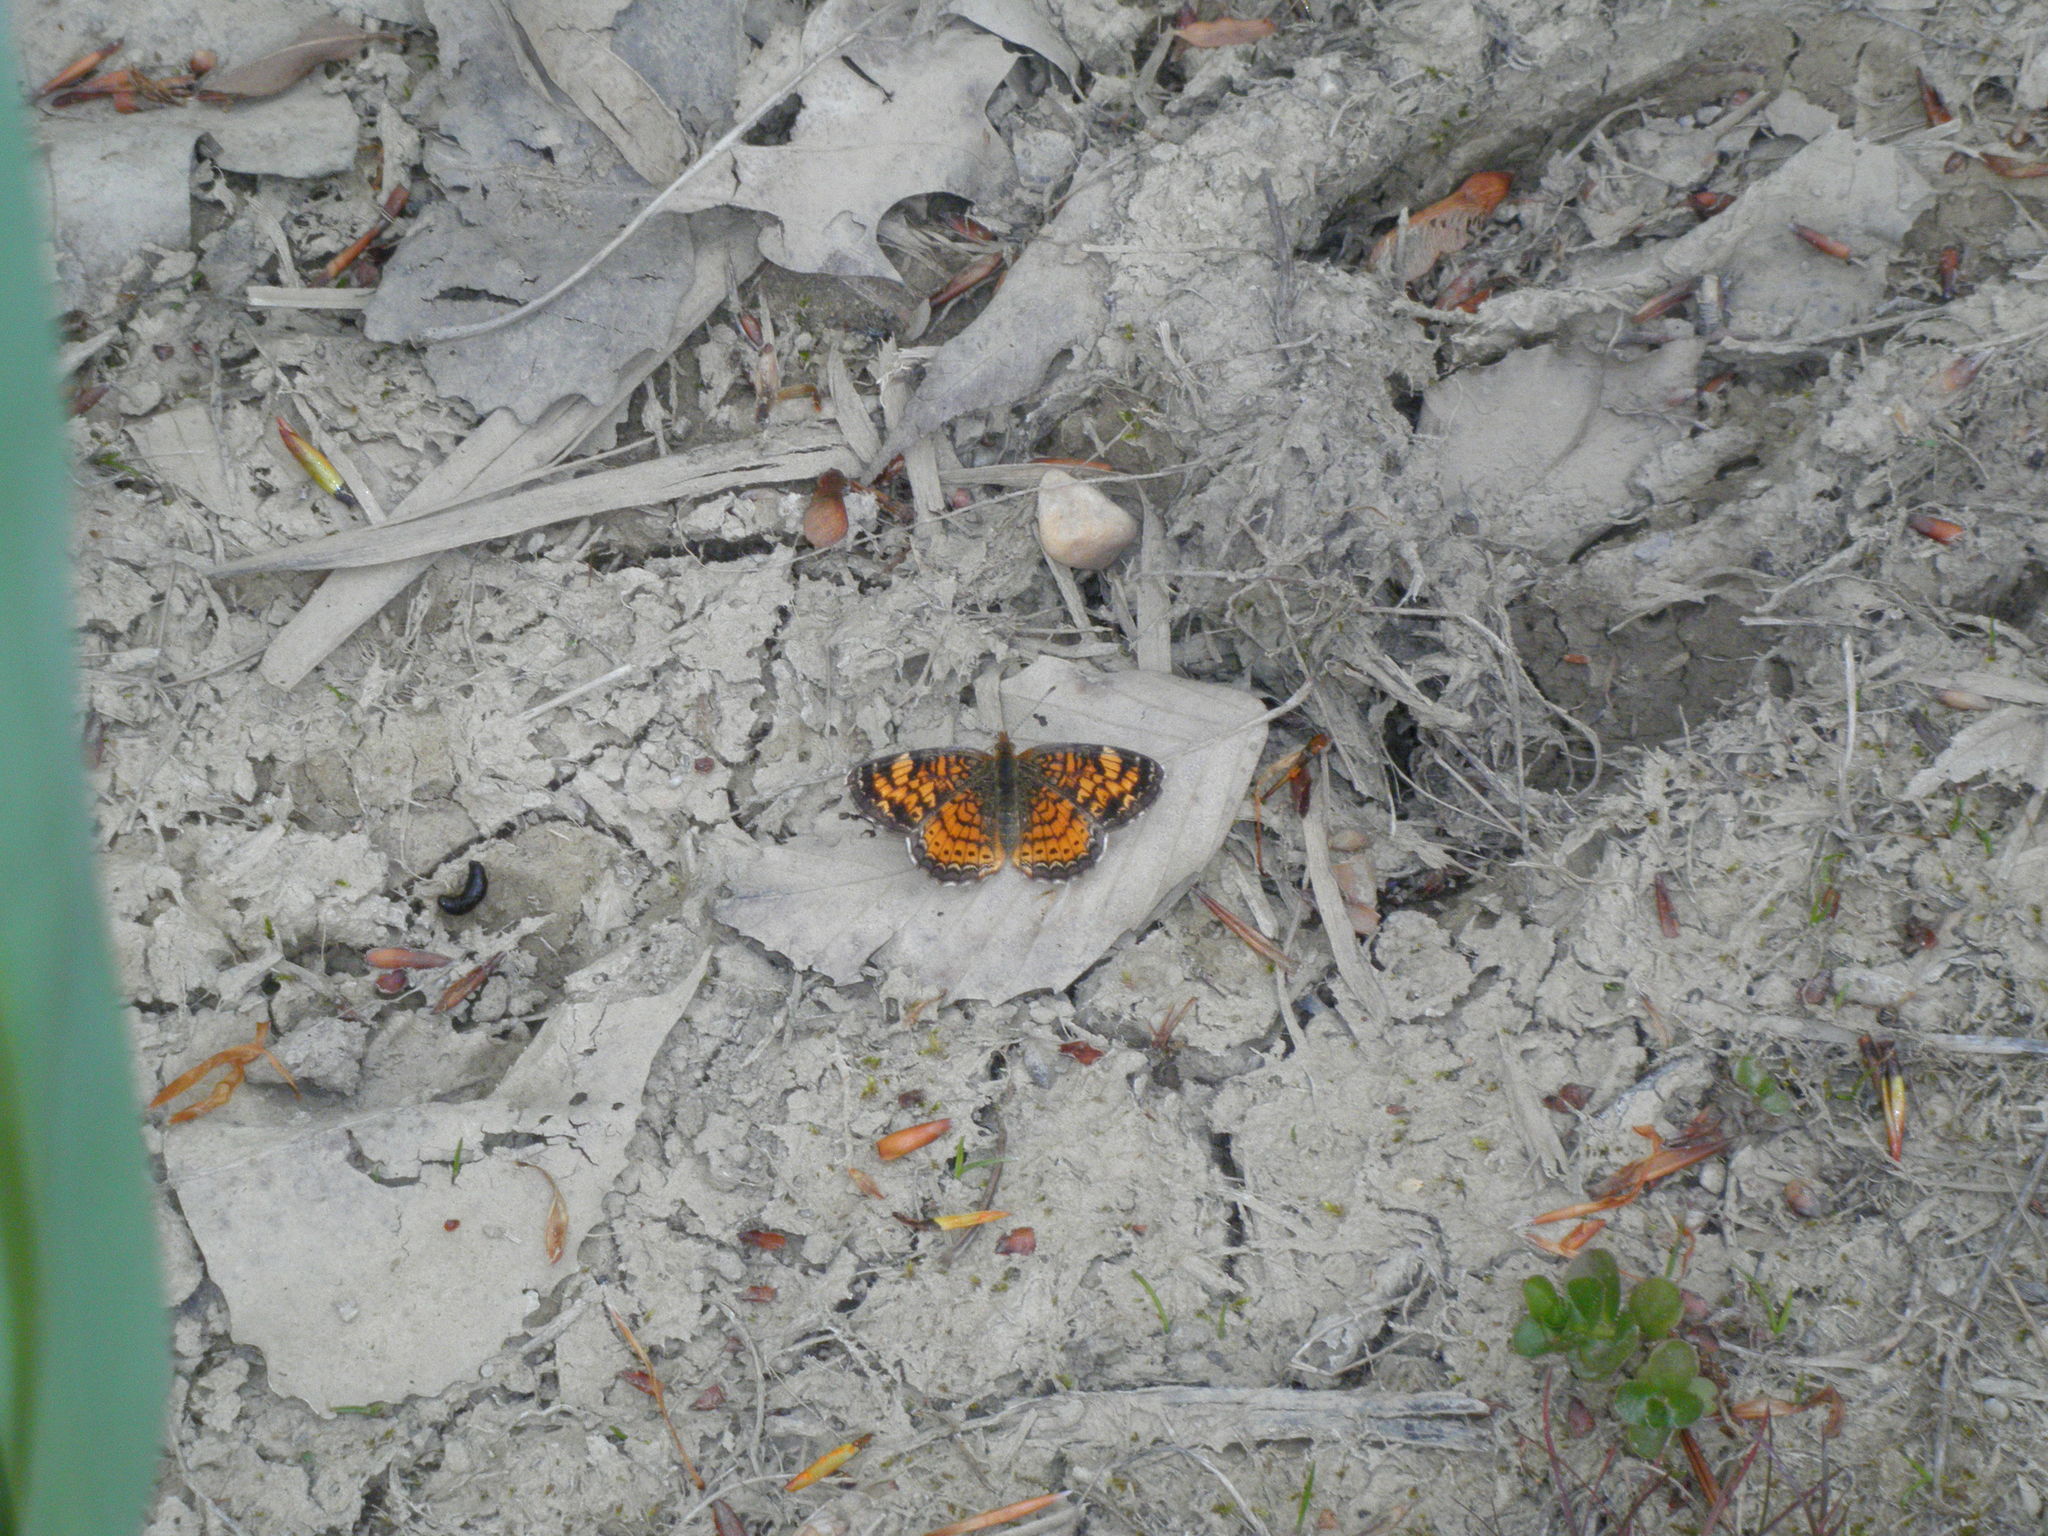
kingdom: Animalia
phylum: Arthropoda
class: Insecta
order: Lepidoptera
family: Nymphalidae
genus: Phyciodes
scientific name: Phyciodes tharos
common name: Pearl crescent
